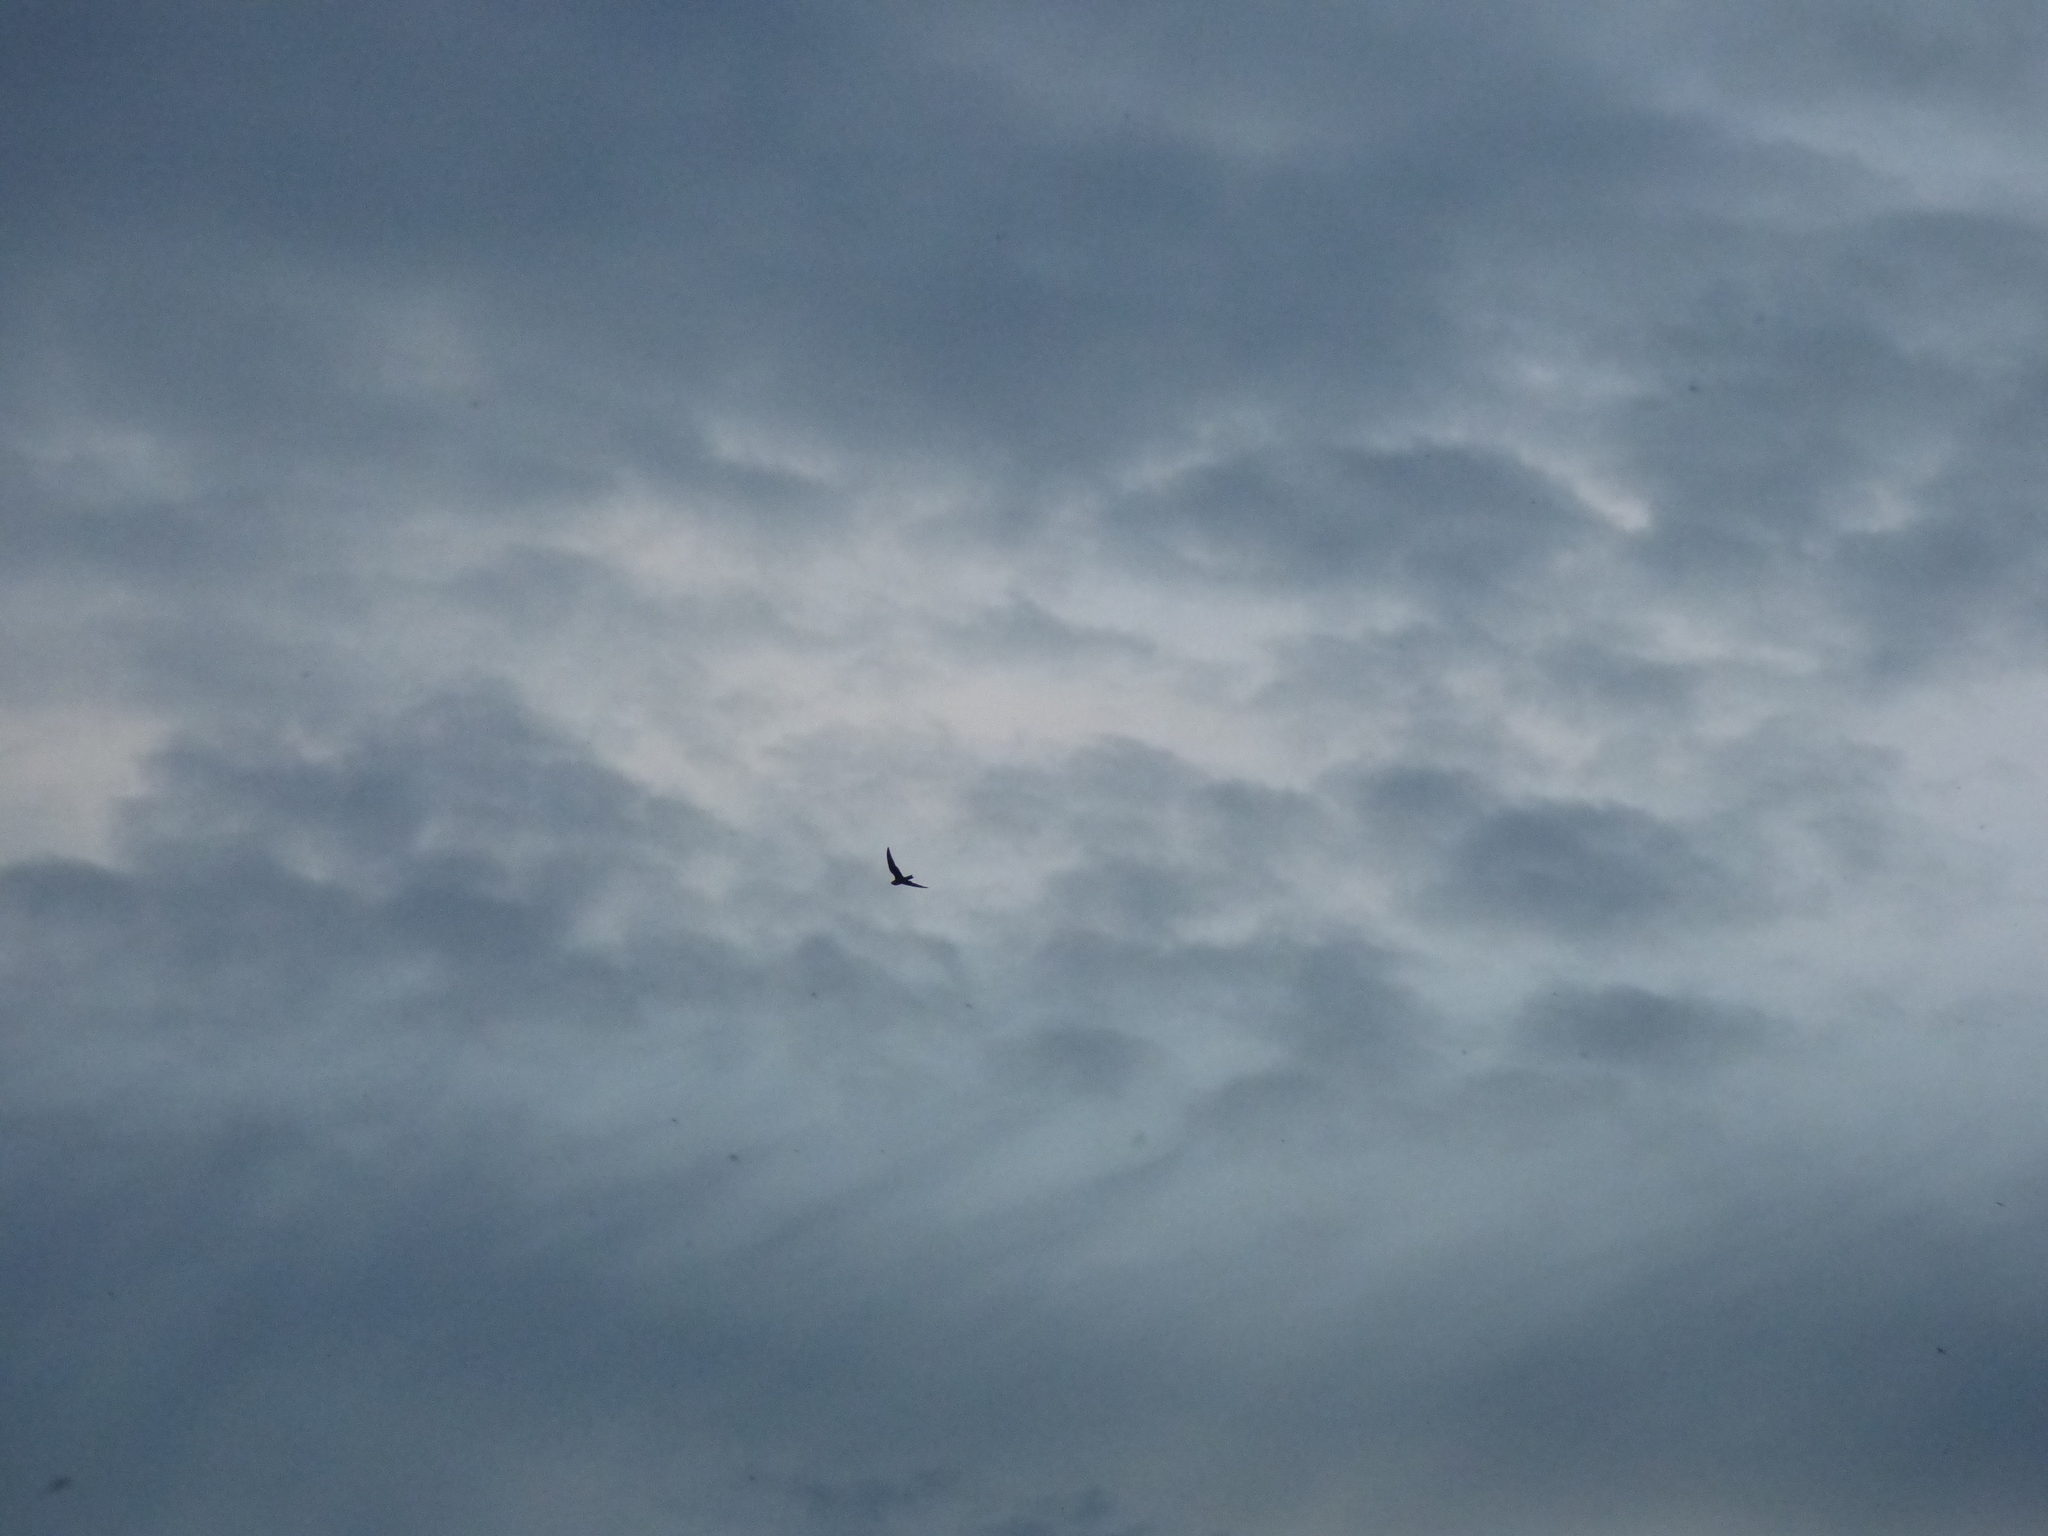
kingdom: Animalia
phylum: Chordata
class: Aves
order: Caprimulgiformes
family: Caprimulgidae
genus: Chordeiles
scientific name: Chordeiles minor
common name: Common nighthawk
